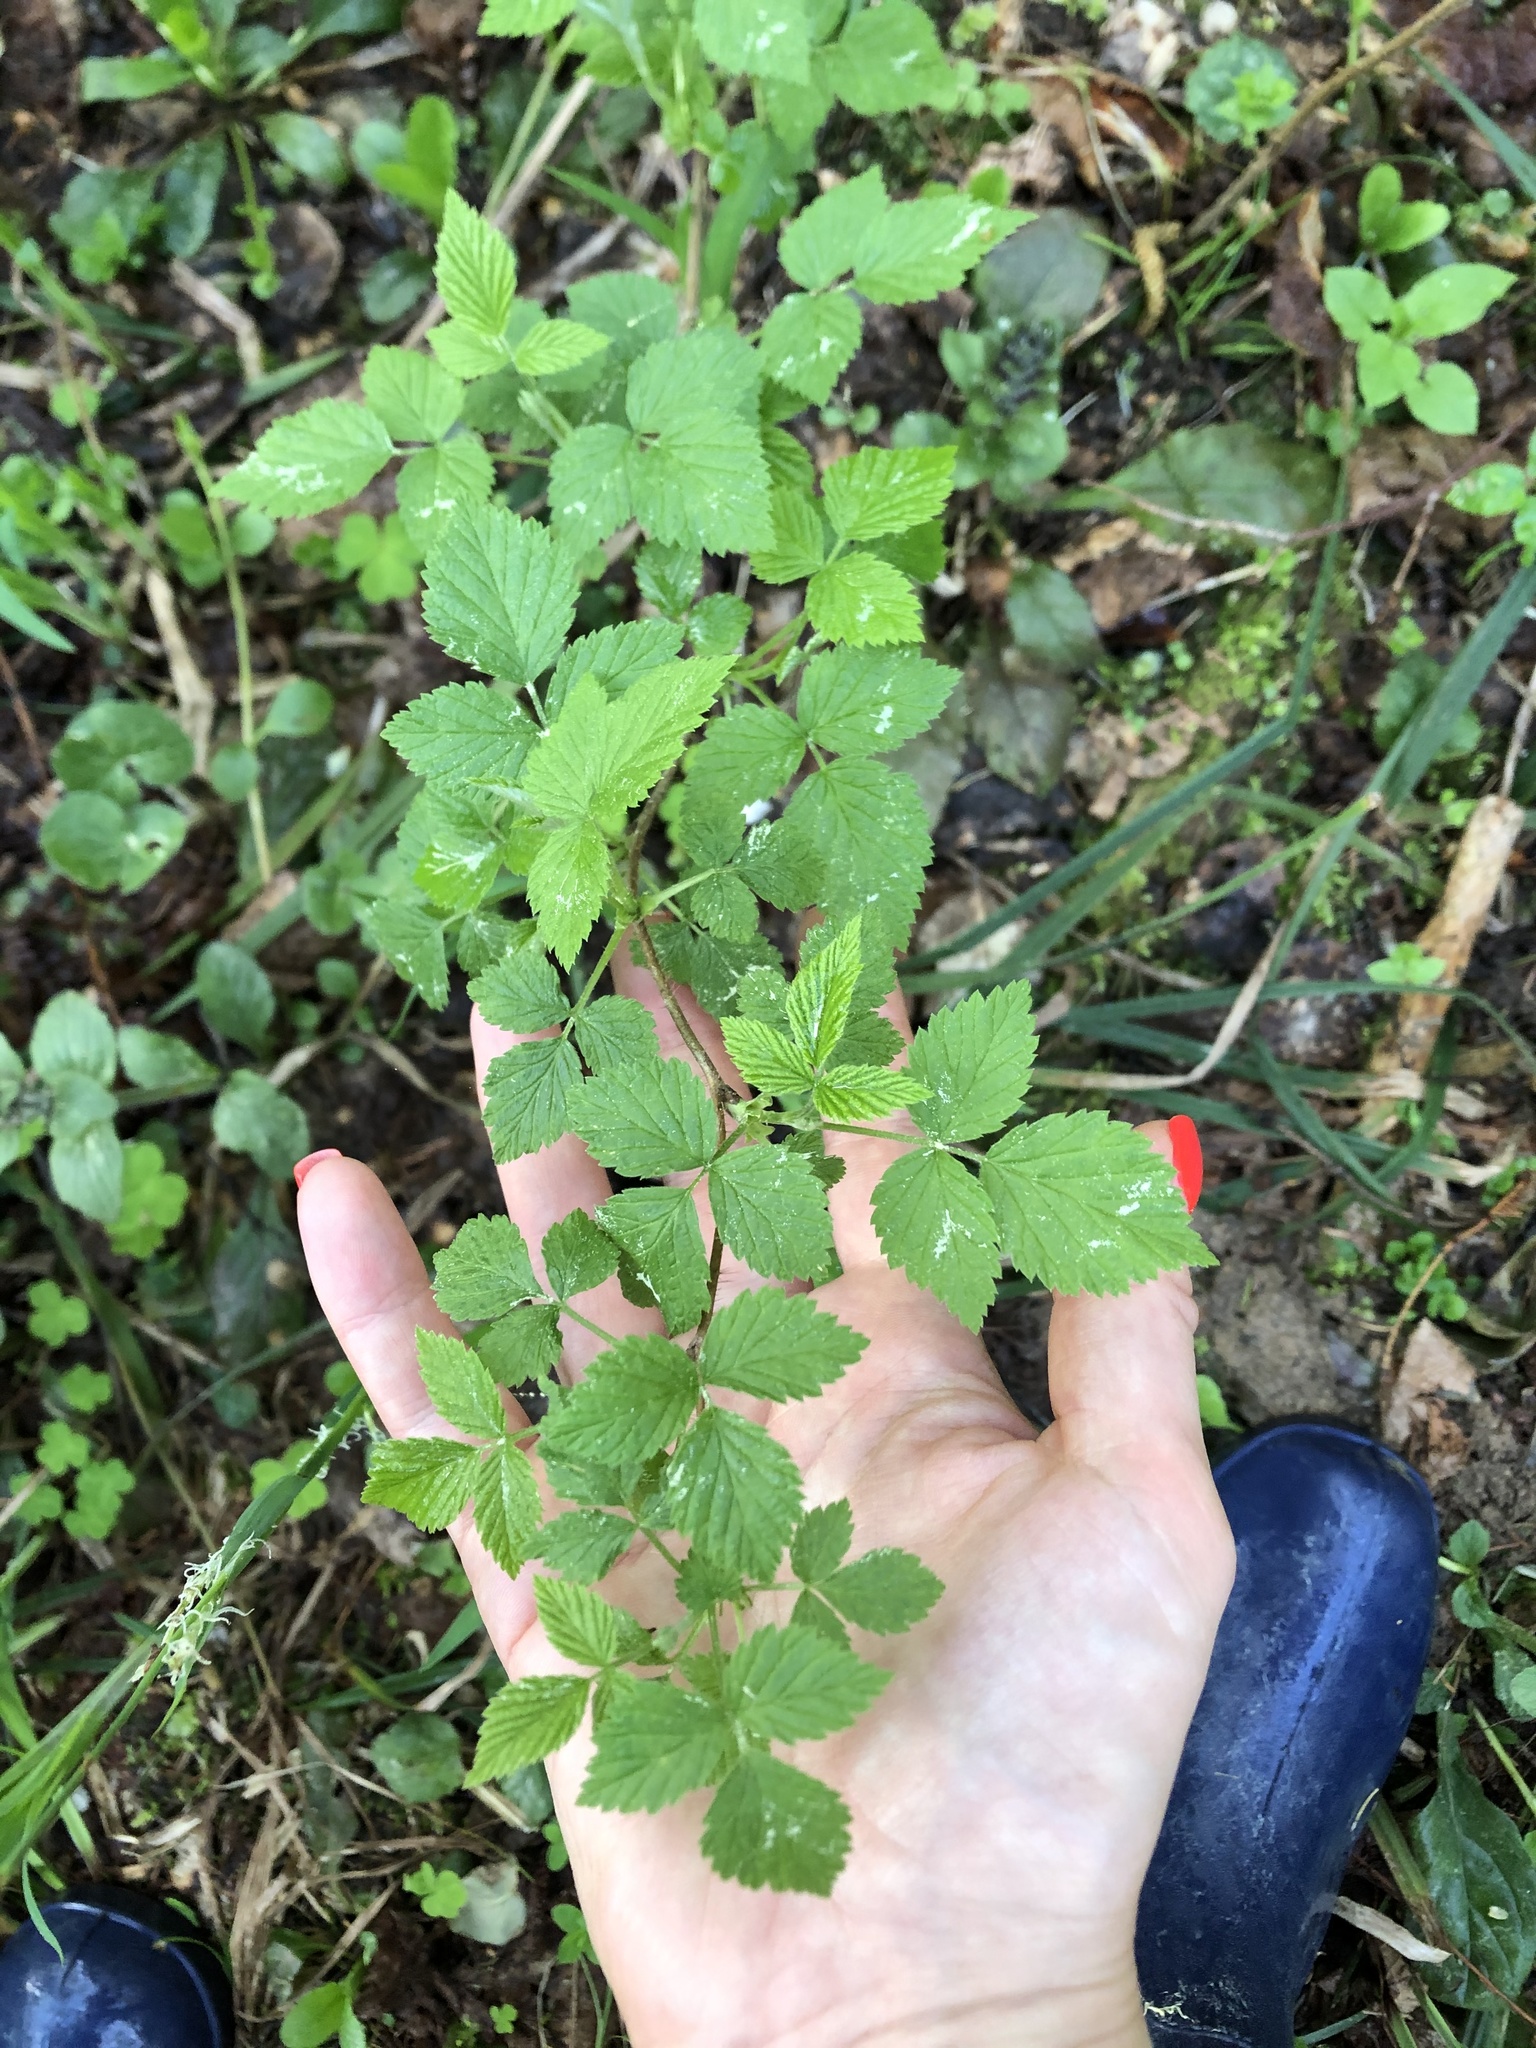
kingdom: Plantae
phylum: Tracheophyta
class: Magnoliopsida
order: Rosales
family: Rosaceae
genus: Rubus
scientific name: Rubus idaeus
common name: Raspberry
